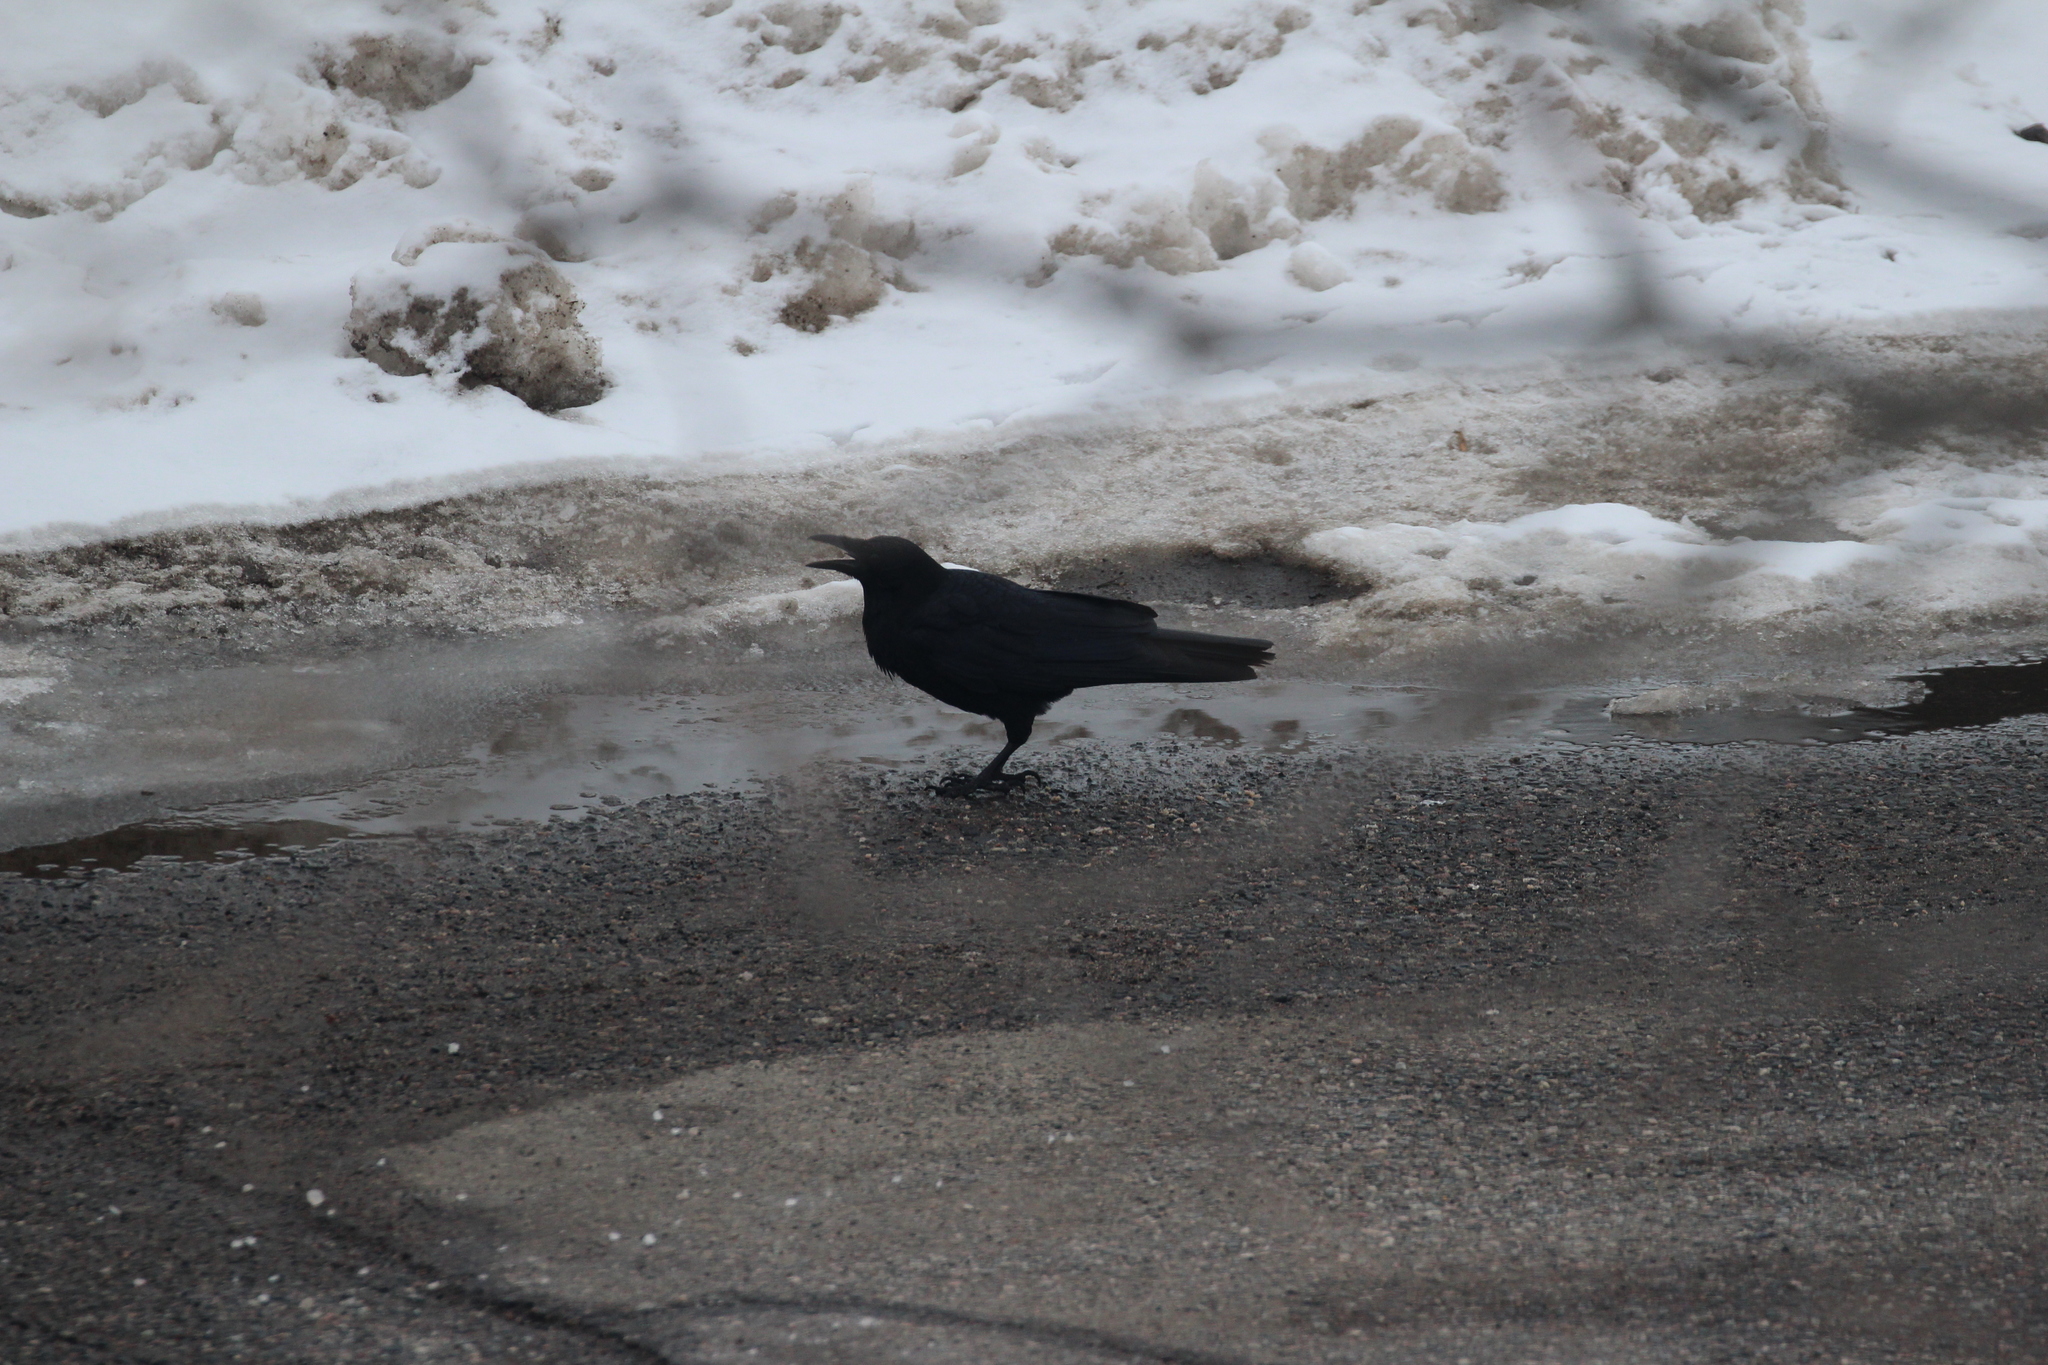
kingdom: Animalia
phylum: Chordata
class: Aves
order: Passeriformes
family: Corvidae
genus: Corvus
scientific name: Corvus brachyrhynchos
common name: American crow
